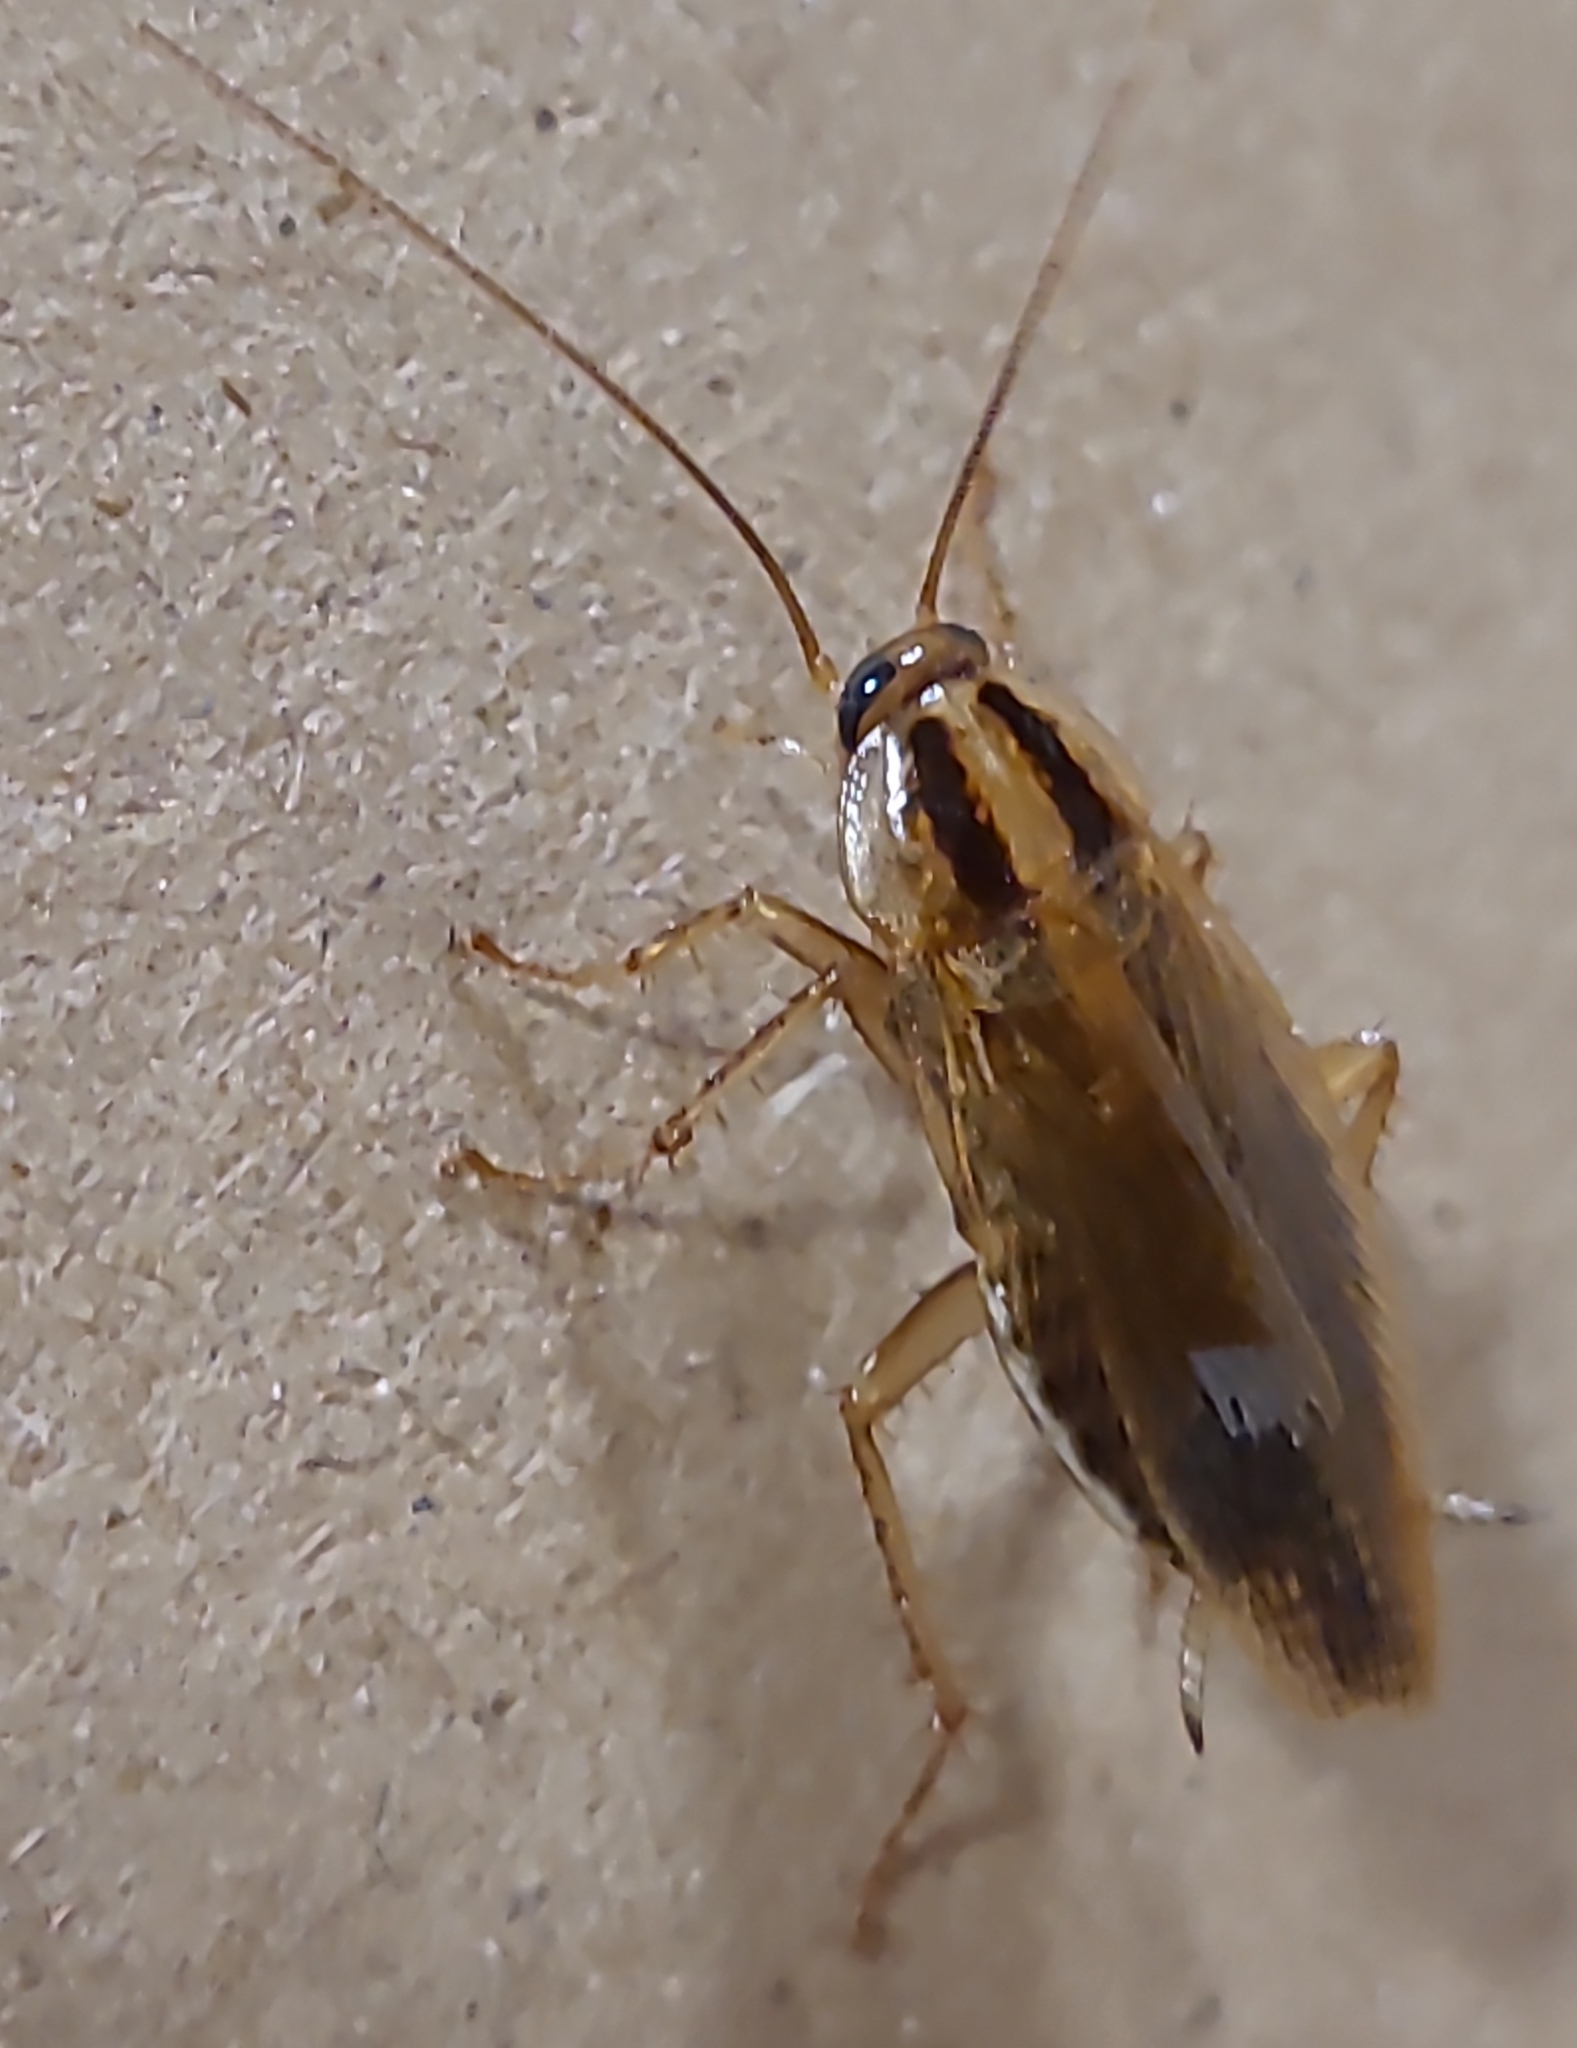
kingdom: Animalia
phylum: Arthropoda
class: Insecta
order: Blattodea
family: Ectobiidae
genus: Blattella
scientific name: Blattella germanica
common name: German cockroach
